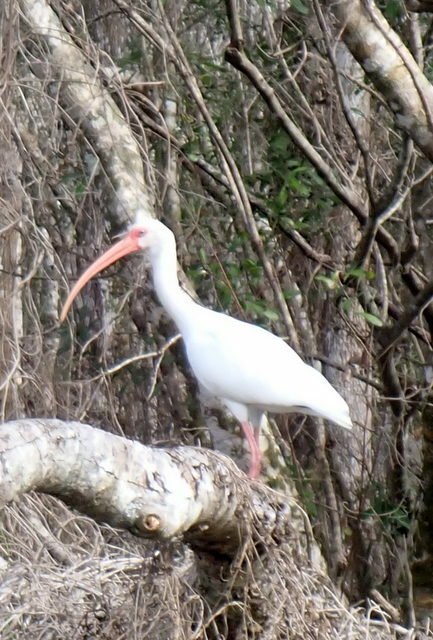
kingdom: Animalia
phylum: Chordata
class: Aves
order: Pelecaniformes
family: Threskiornithidae
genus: Eudocimus
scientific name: Eudocimus albus
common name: White ibis
